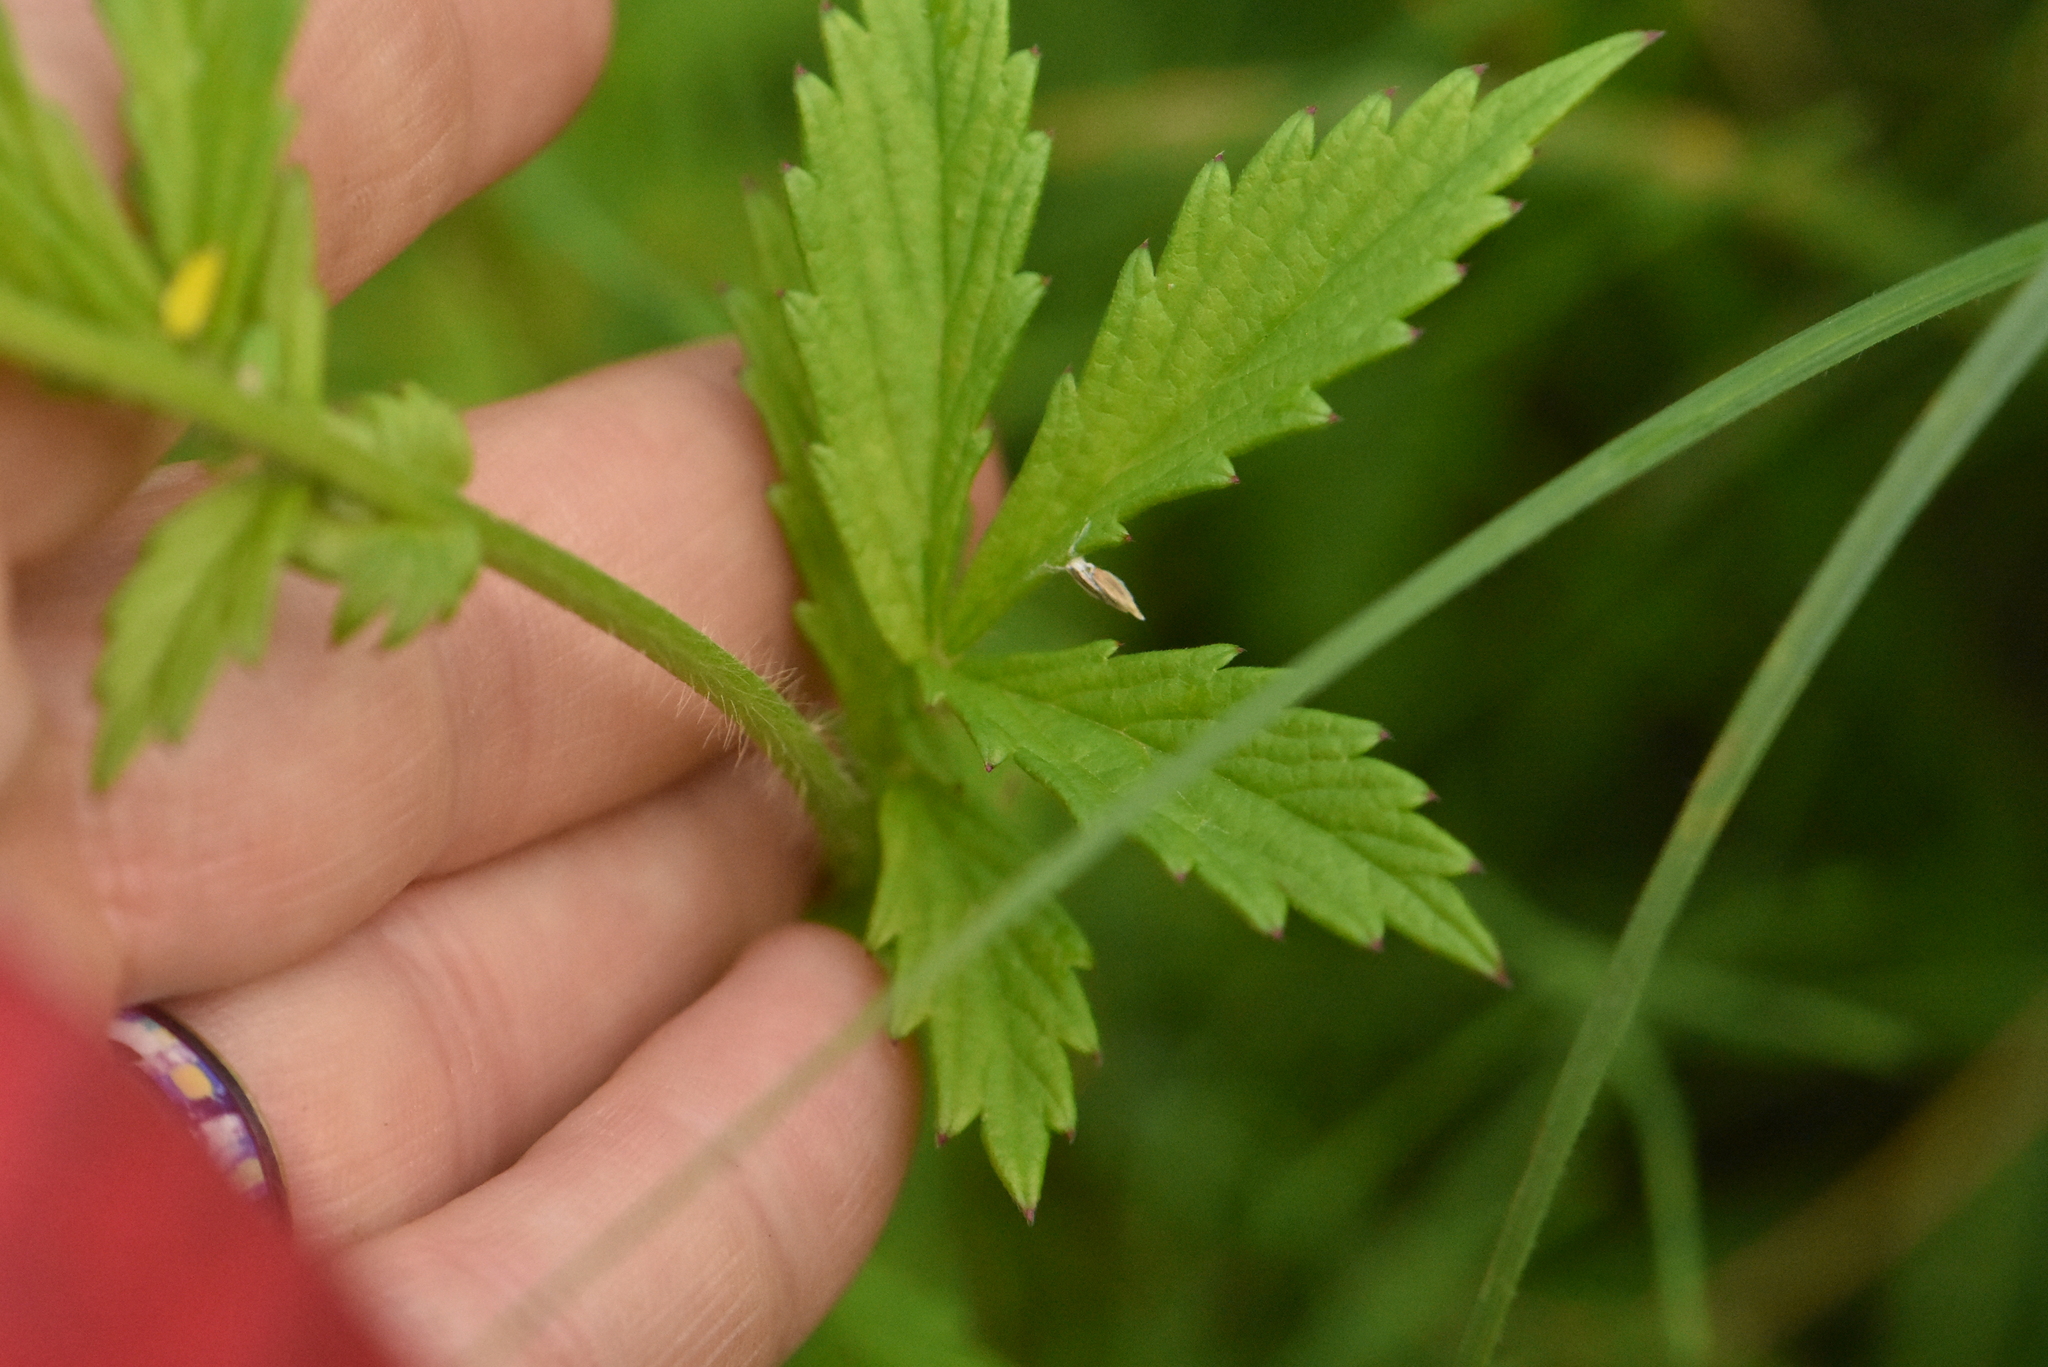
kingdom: Plantae
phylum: Tracheophyta
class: Magnoliopsida
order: Rosales
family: Rosaceae
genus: Agrimonia
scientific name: Agrimonia pilosa
